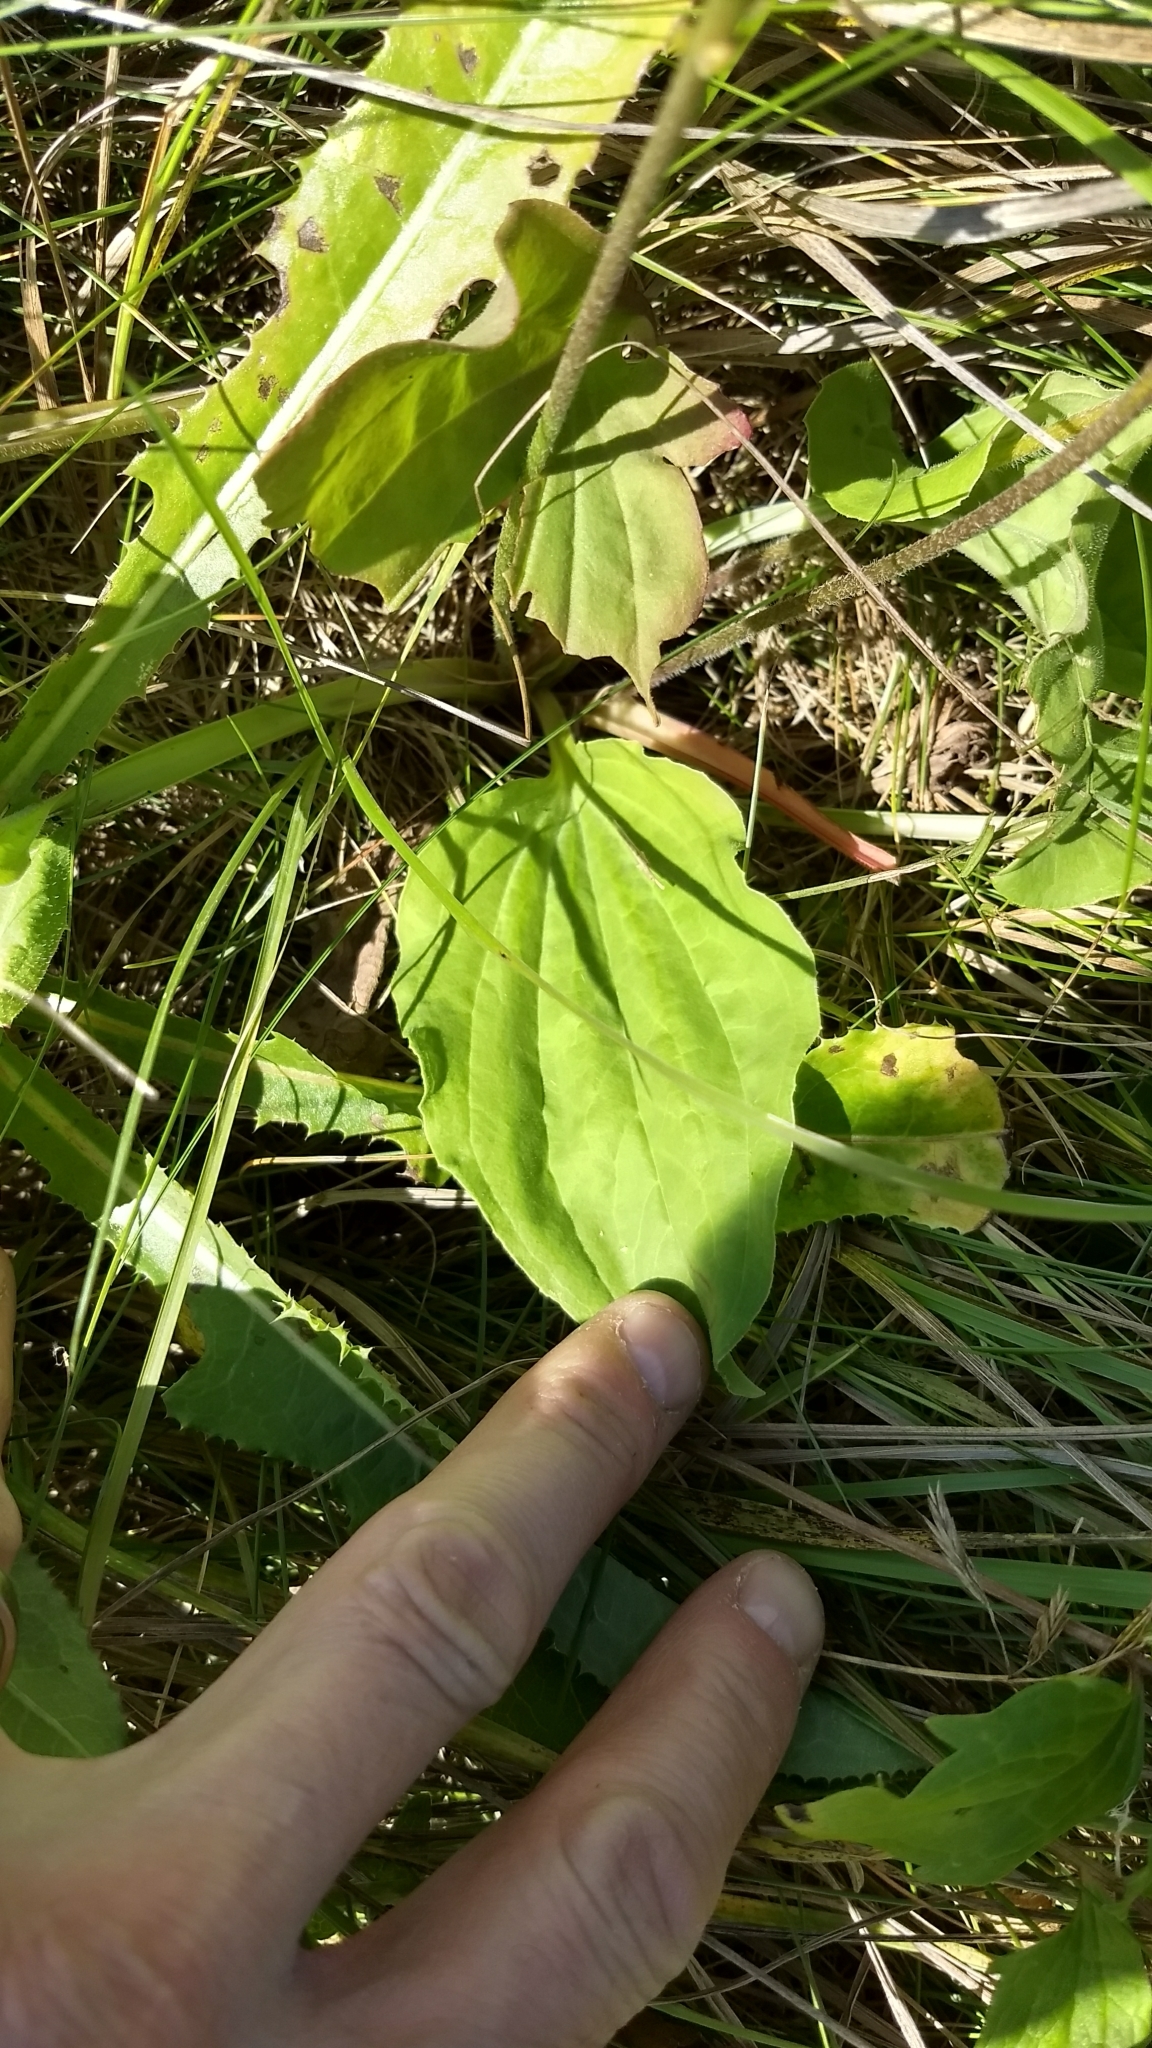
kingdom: Plantae
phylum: Tracheophyta
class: Magnoliopsida
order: Lamiales
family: Plantaginaceae
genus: Plantago
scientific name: Plantago major
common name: Common plantain
